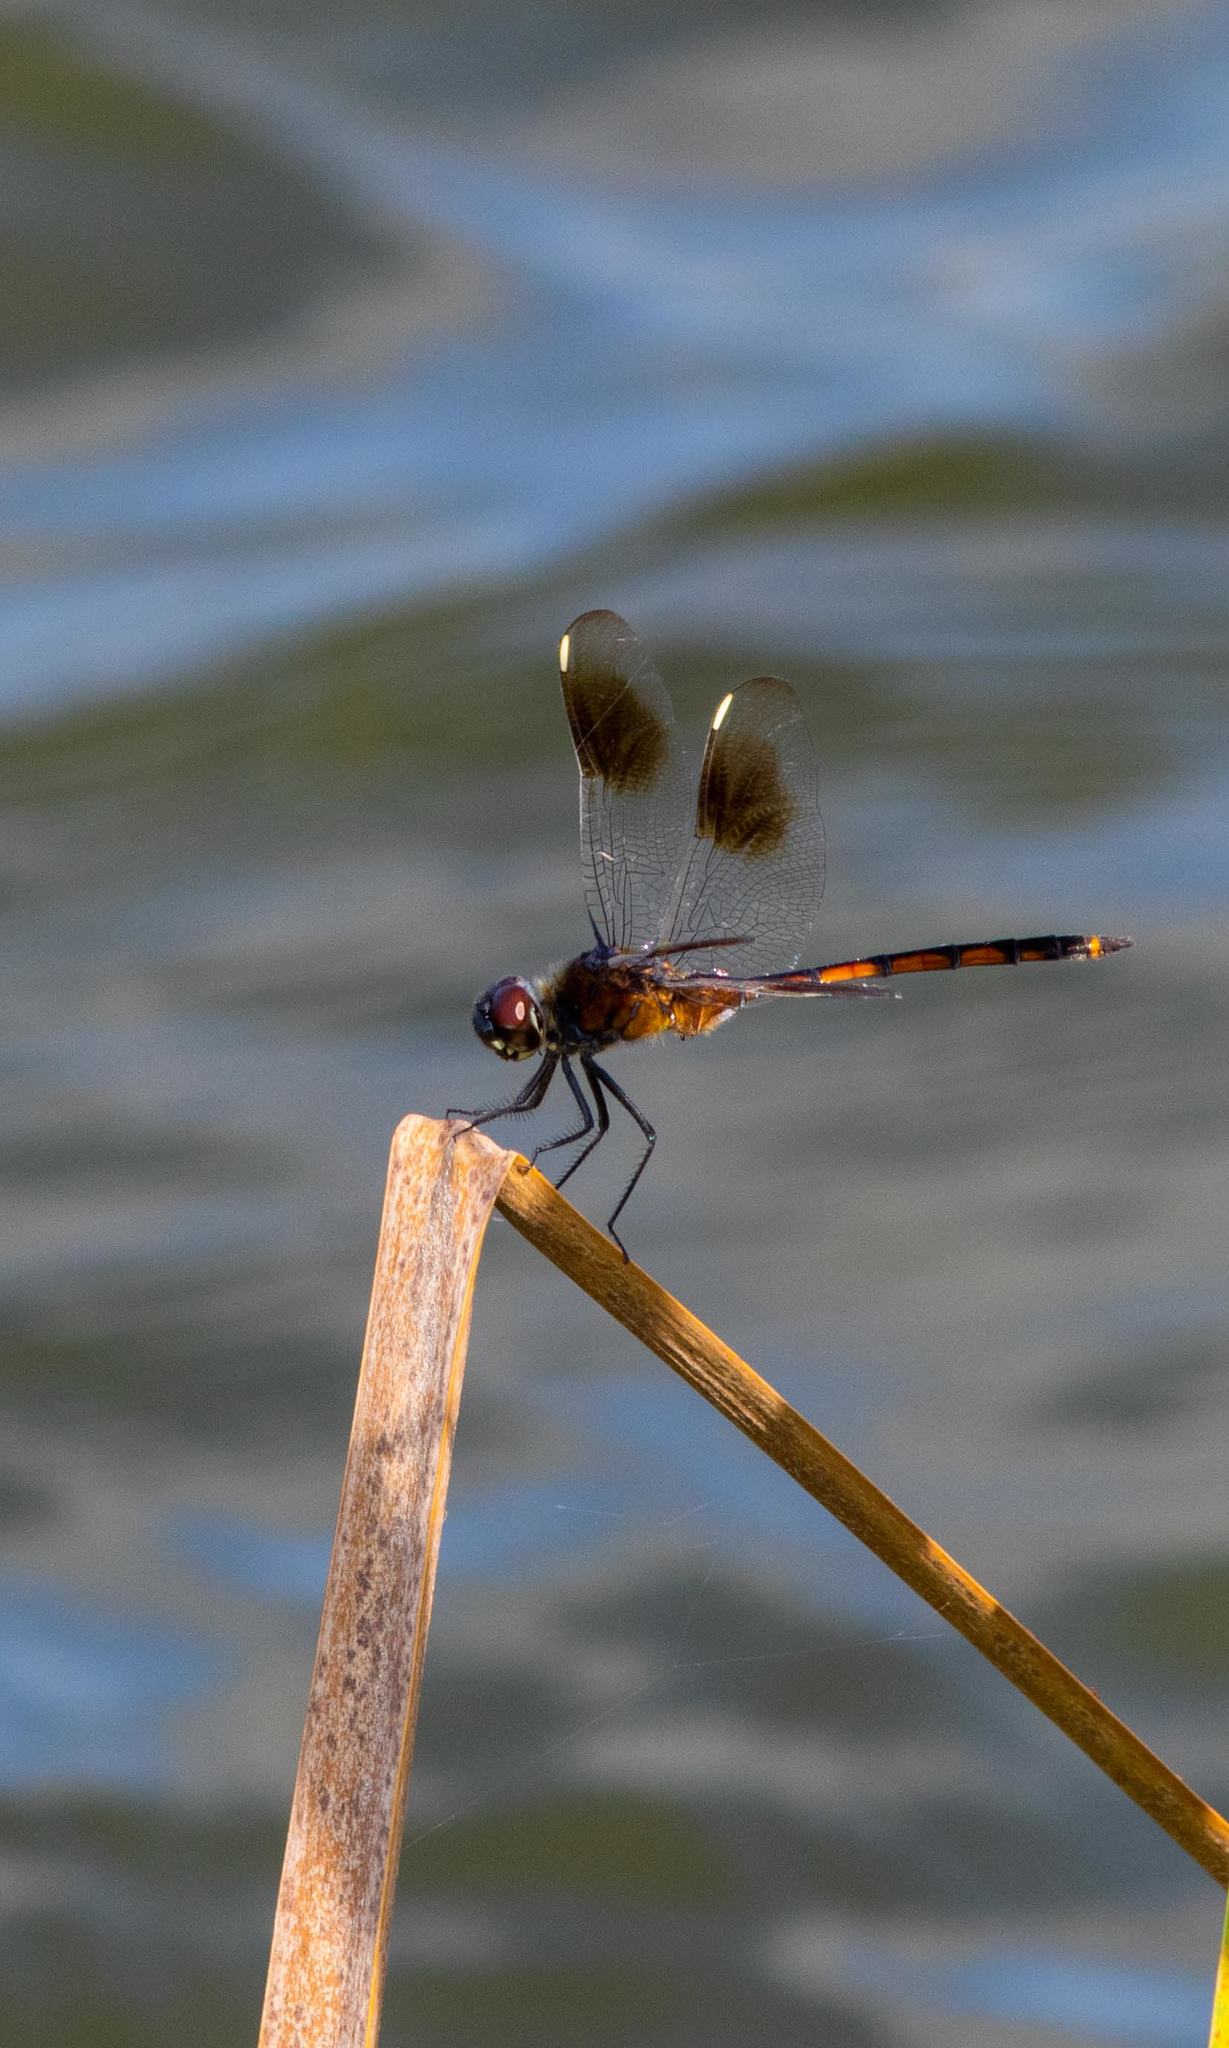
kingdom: Animalia
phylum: Arthropoda
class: Insecta
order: Odonata
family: Libellulidae
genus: Brachymesia
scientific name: Brachymesia gravida
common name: Four-spotted pennant
